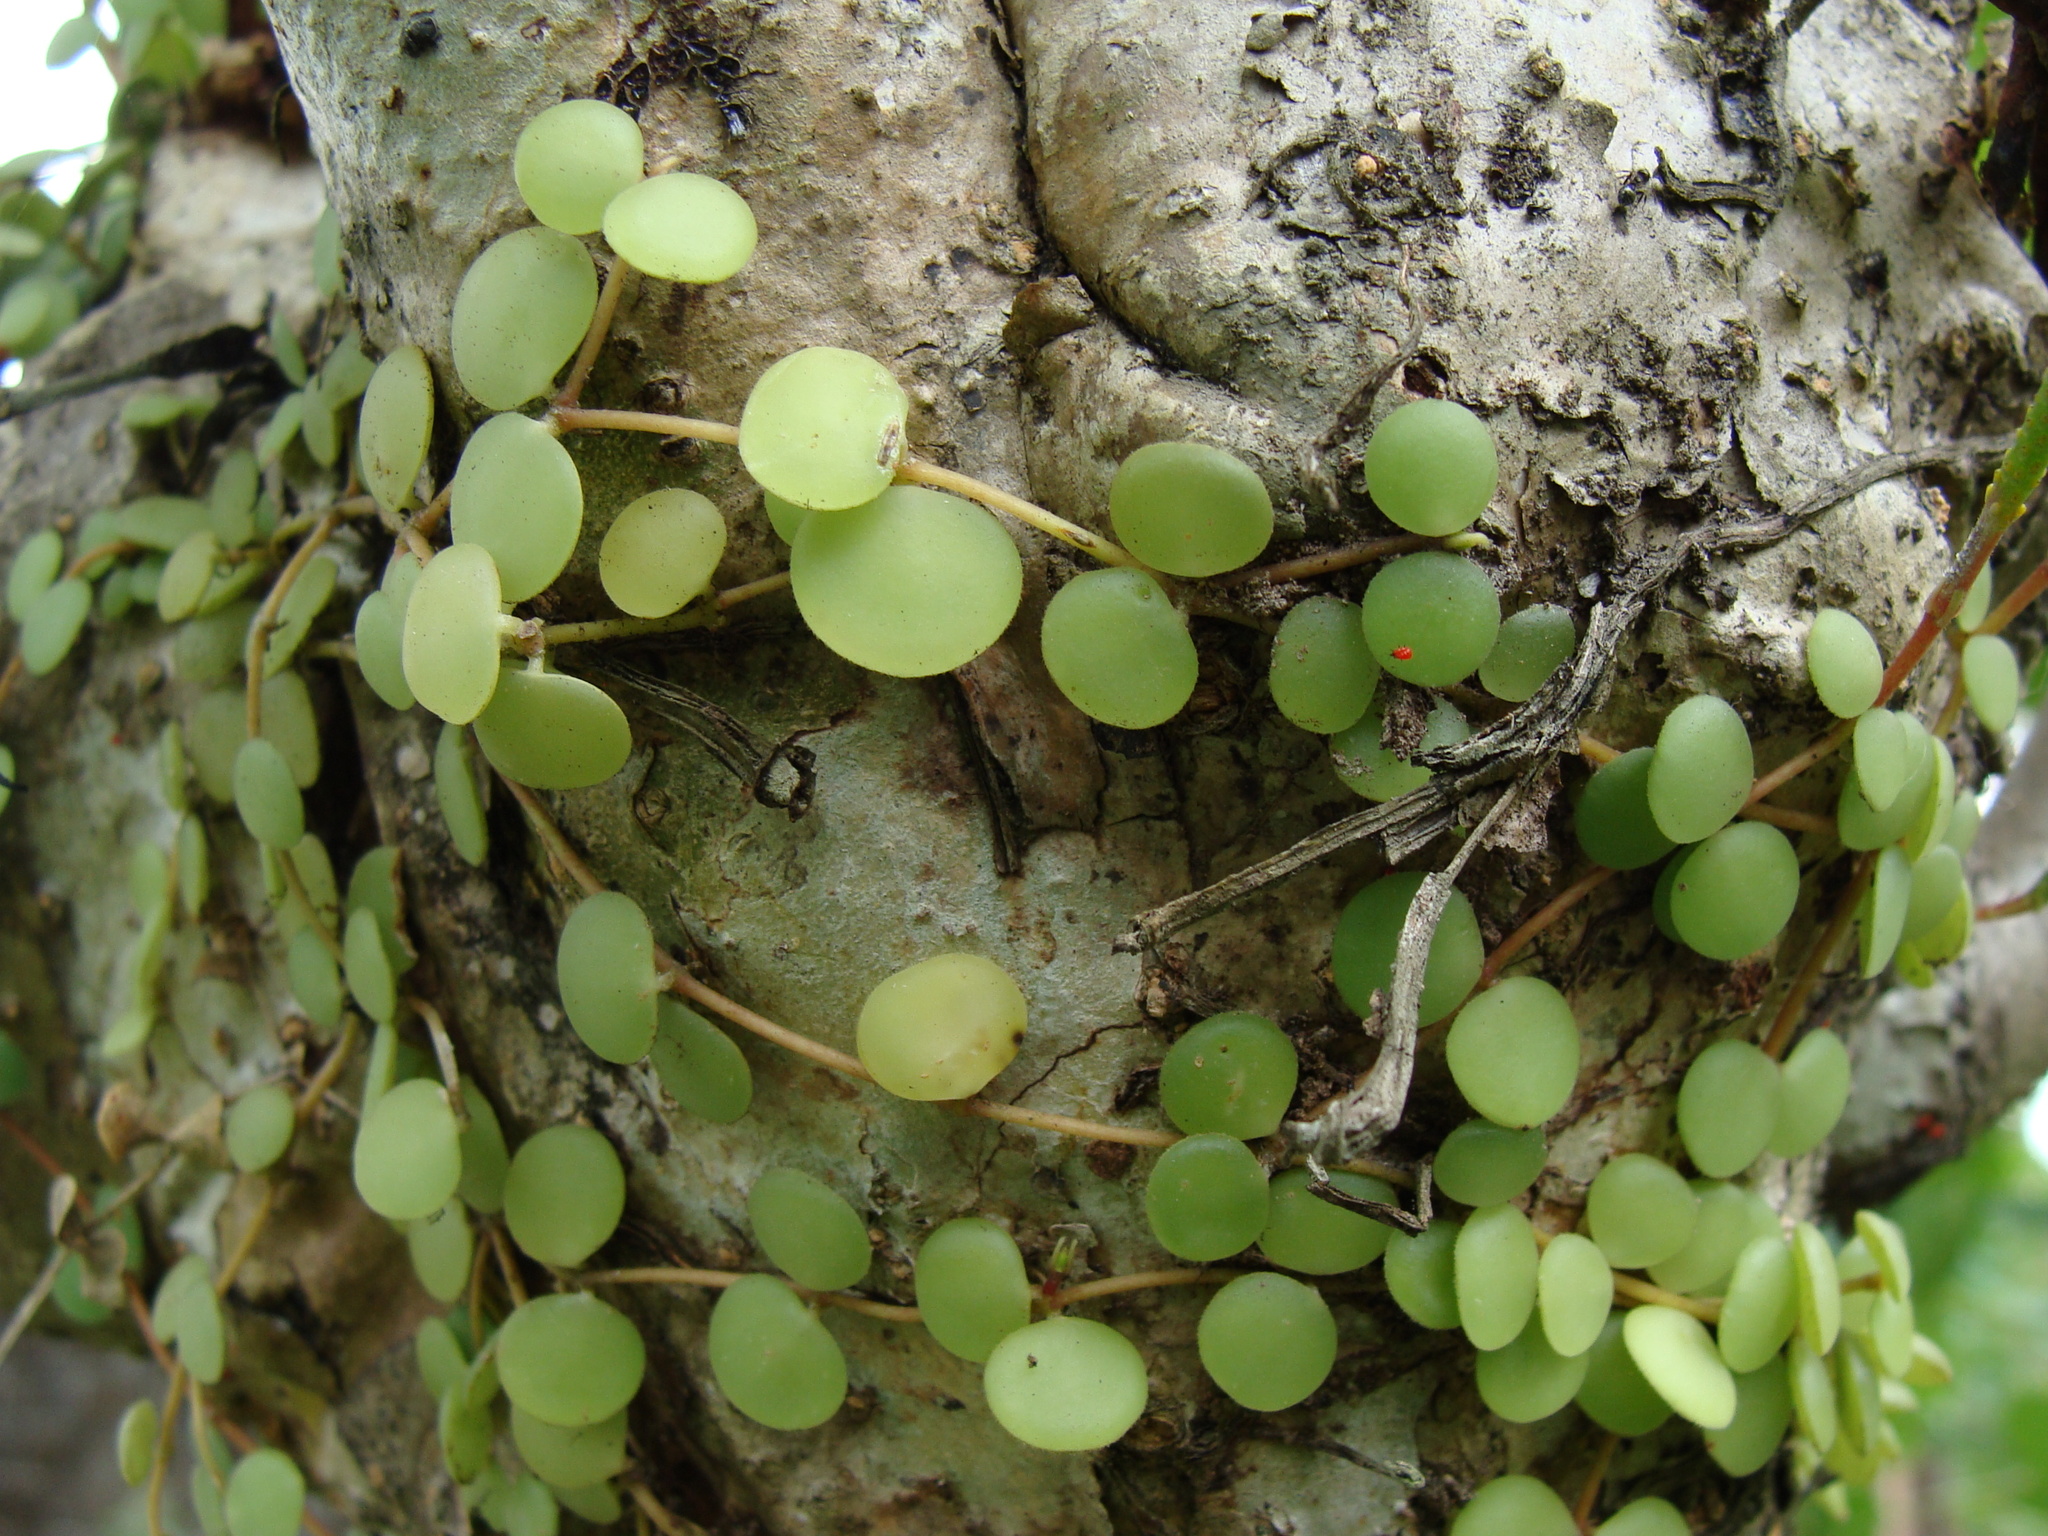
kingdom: Plantae
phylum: Tracheophyta
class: Magnoliopsida
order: Piperales
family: Piperaceae
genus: Peperomia
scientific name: Peperomia cyclophylla
